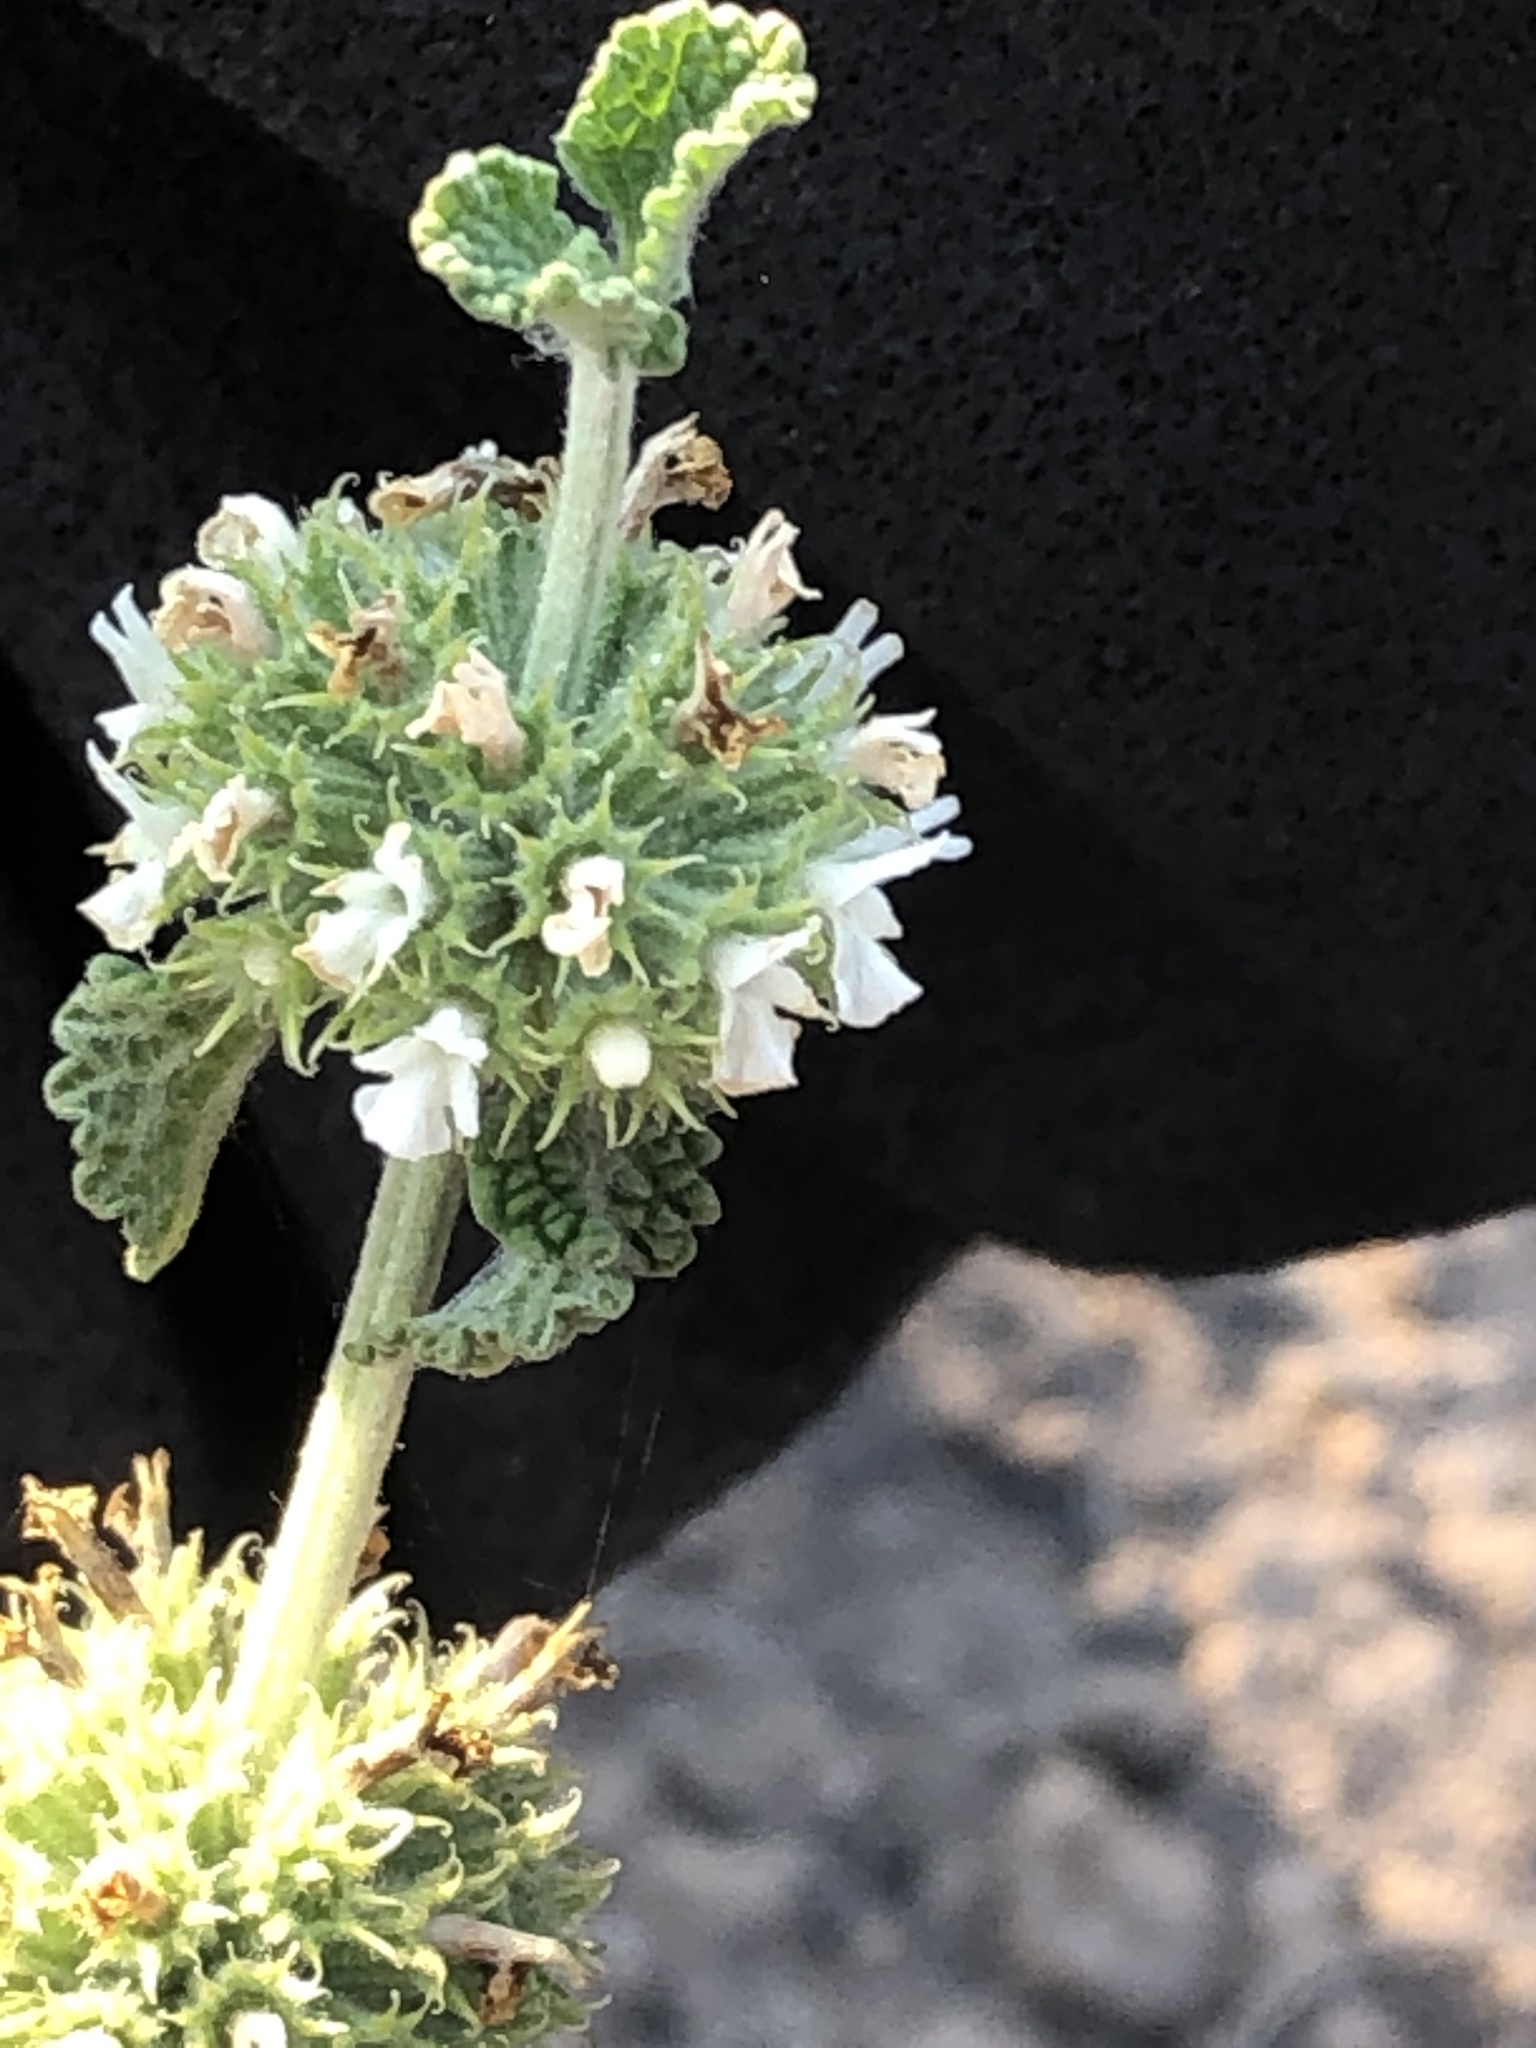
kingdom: Plantae
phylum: Tracheophyta
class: Magnoliopsida
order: Lamiales
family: Lamiaceae
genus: Marrubium
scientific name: Marrubium vulgare
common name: Horehound
